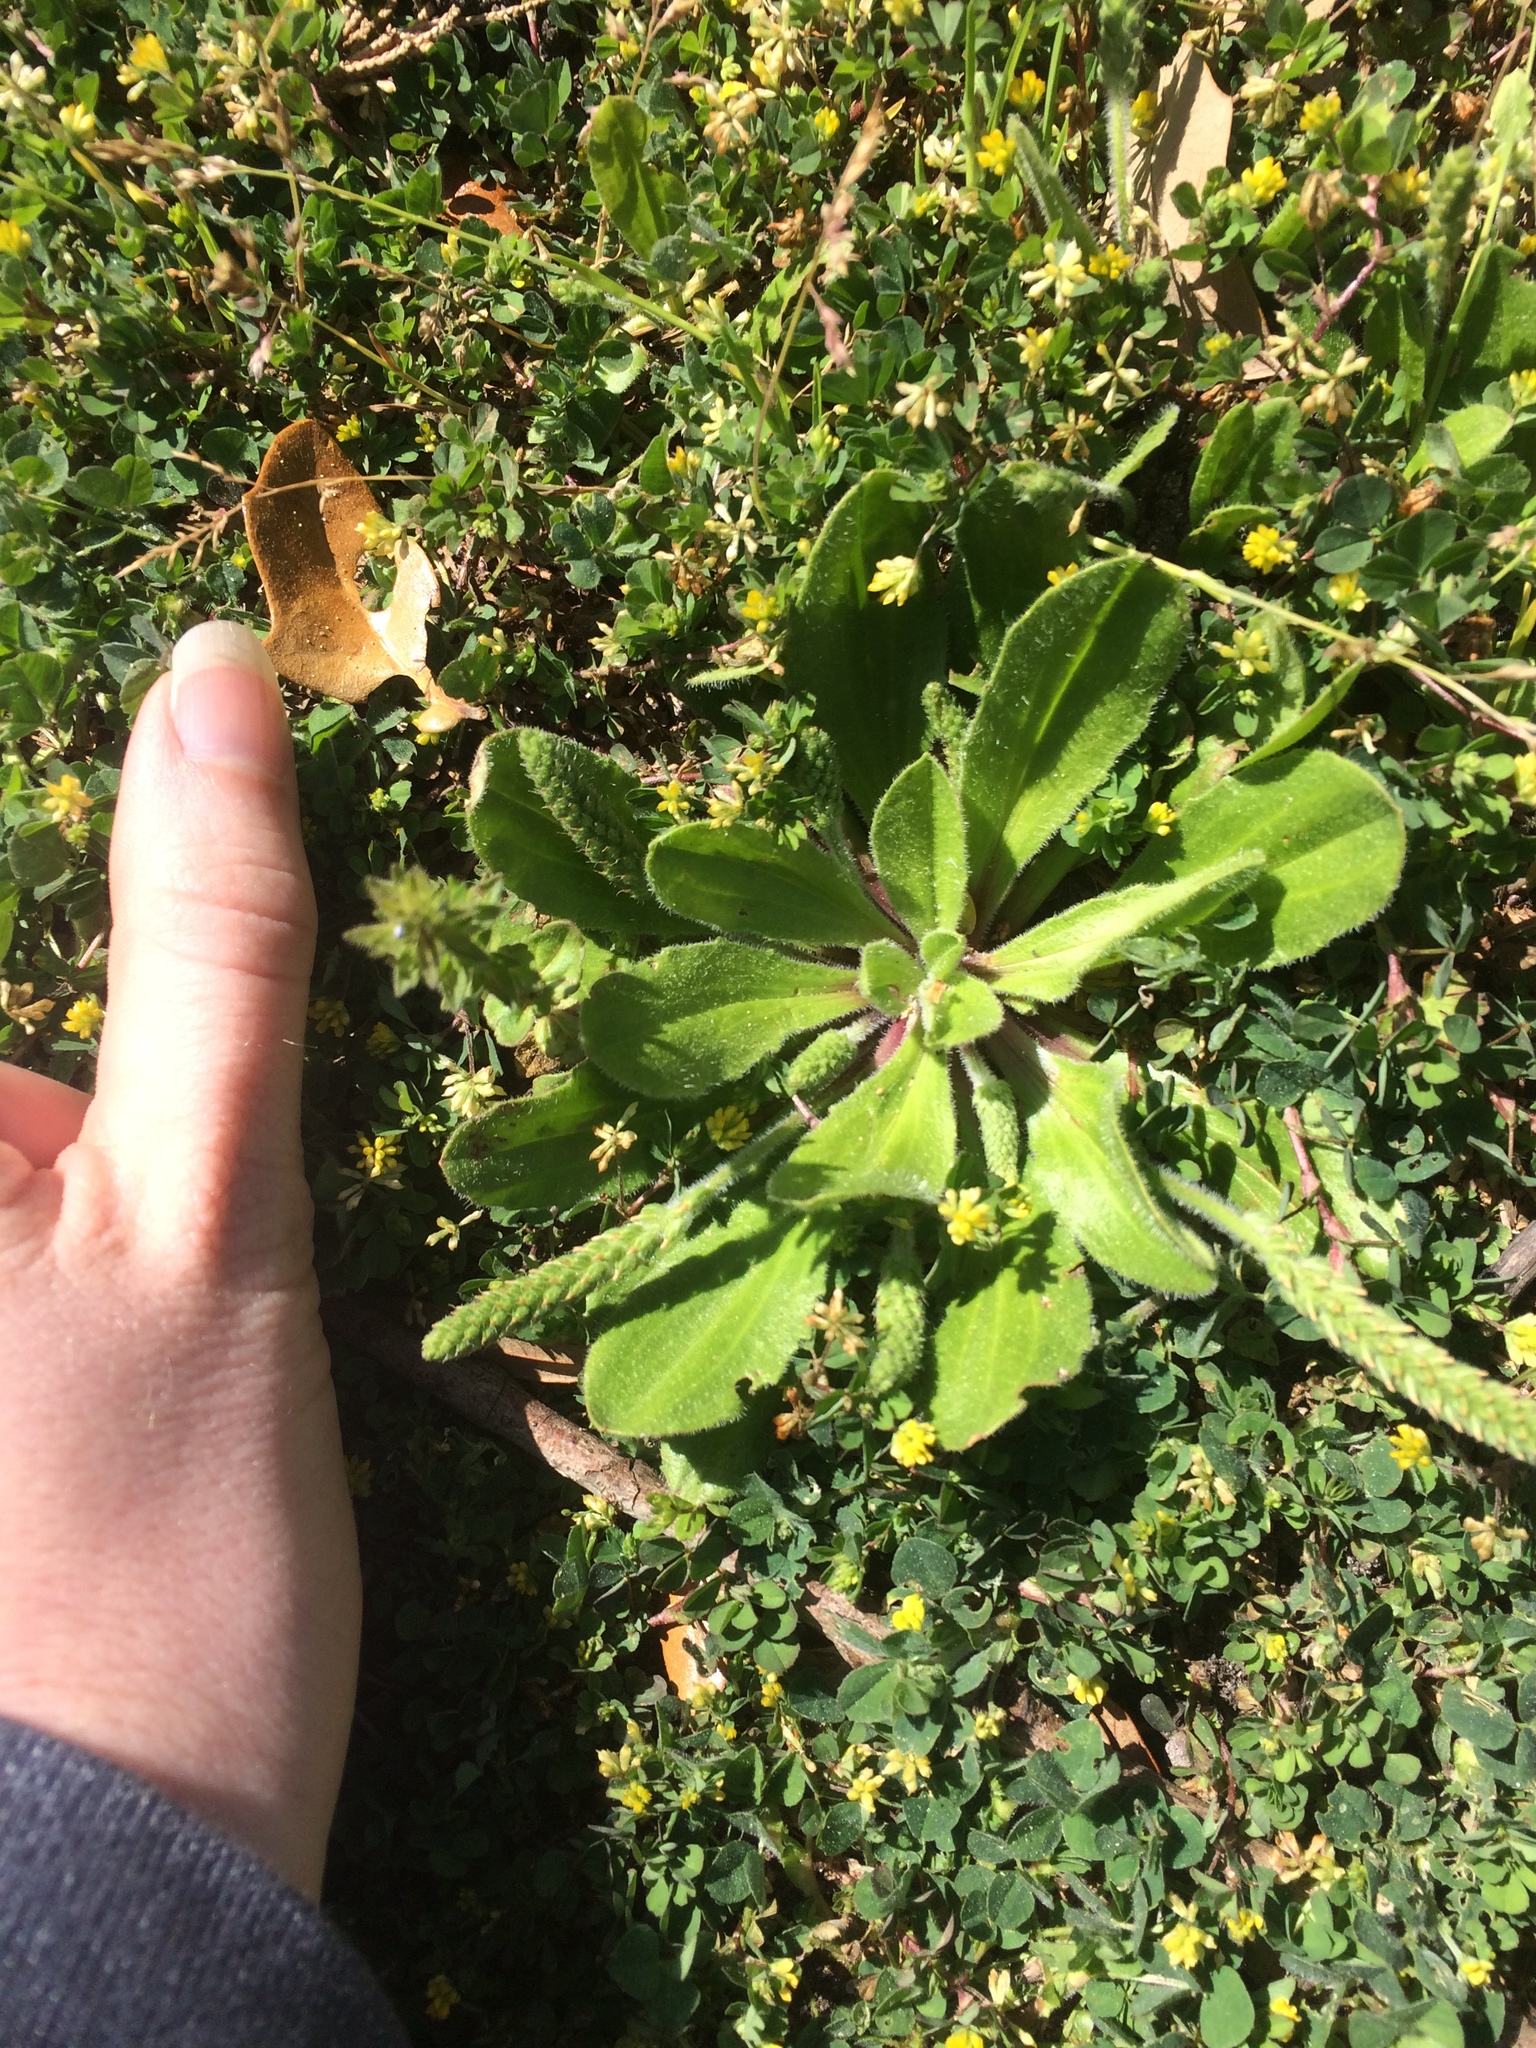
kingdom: Plantae
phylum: Tracheophyta
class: Magnoliopsida
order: Lamiales
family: Plantaginaceae
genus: Plantago
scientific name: Plantago virginica
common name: Hoary plantain
